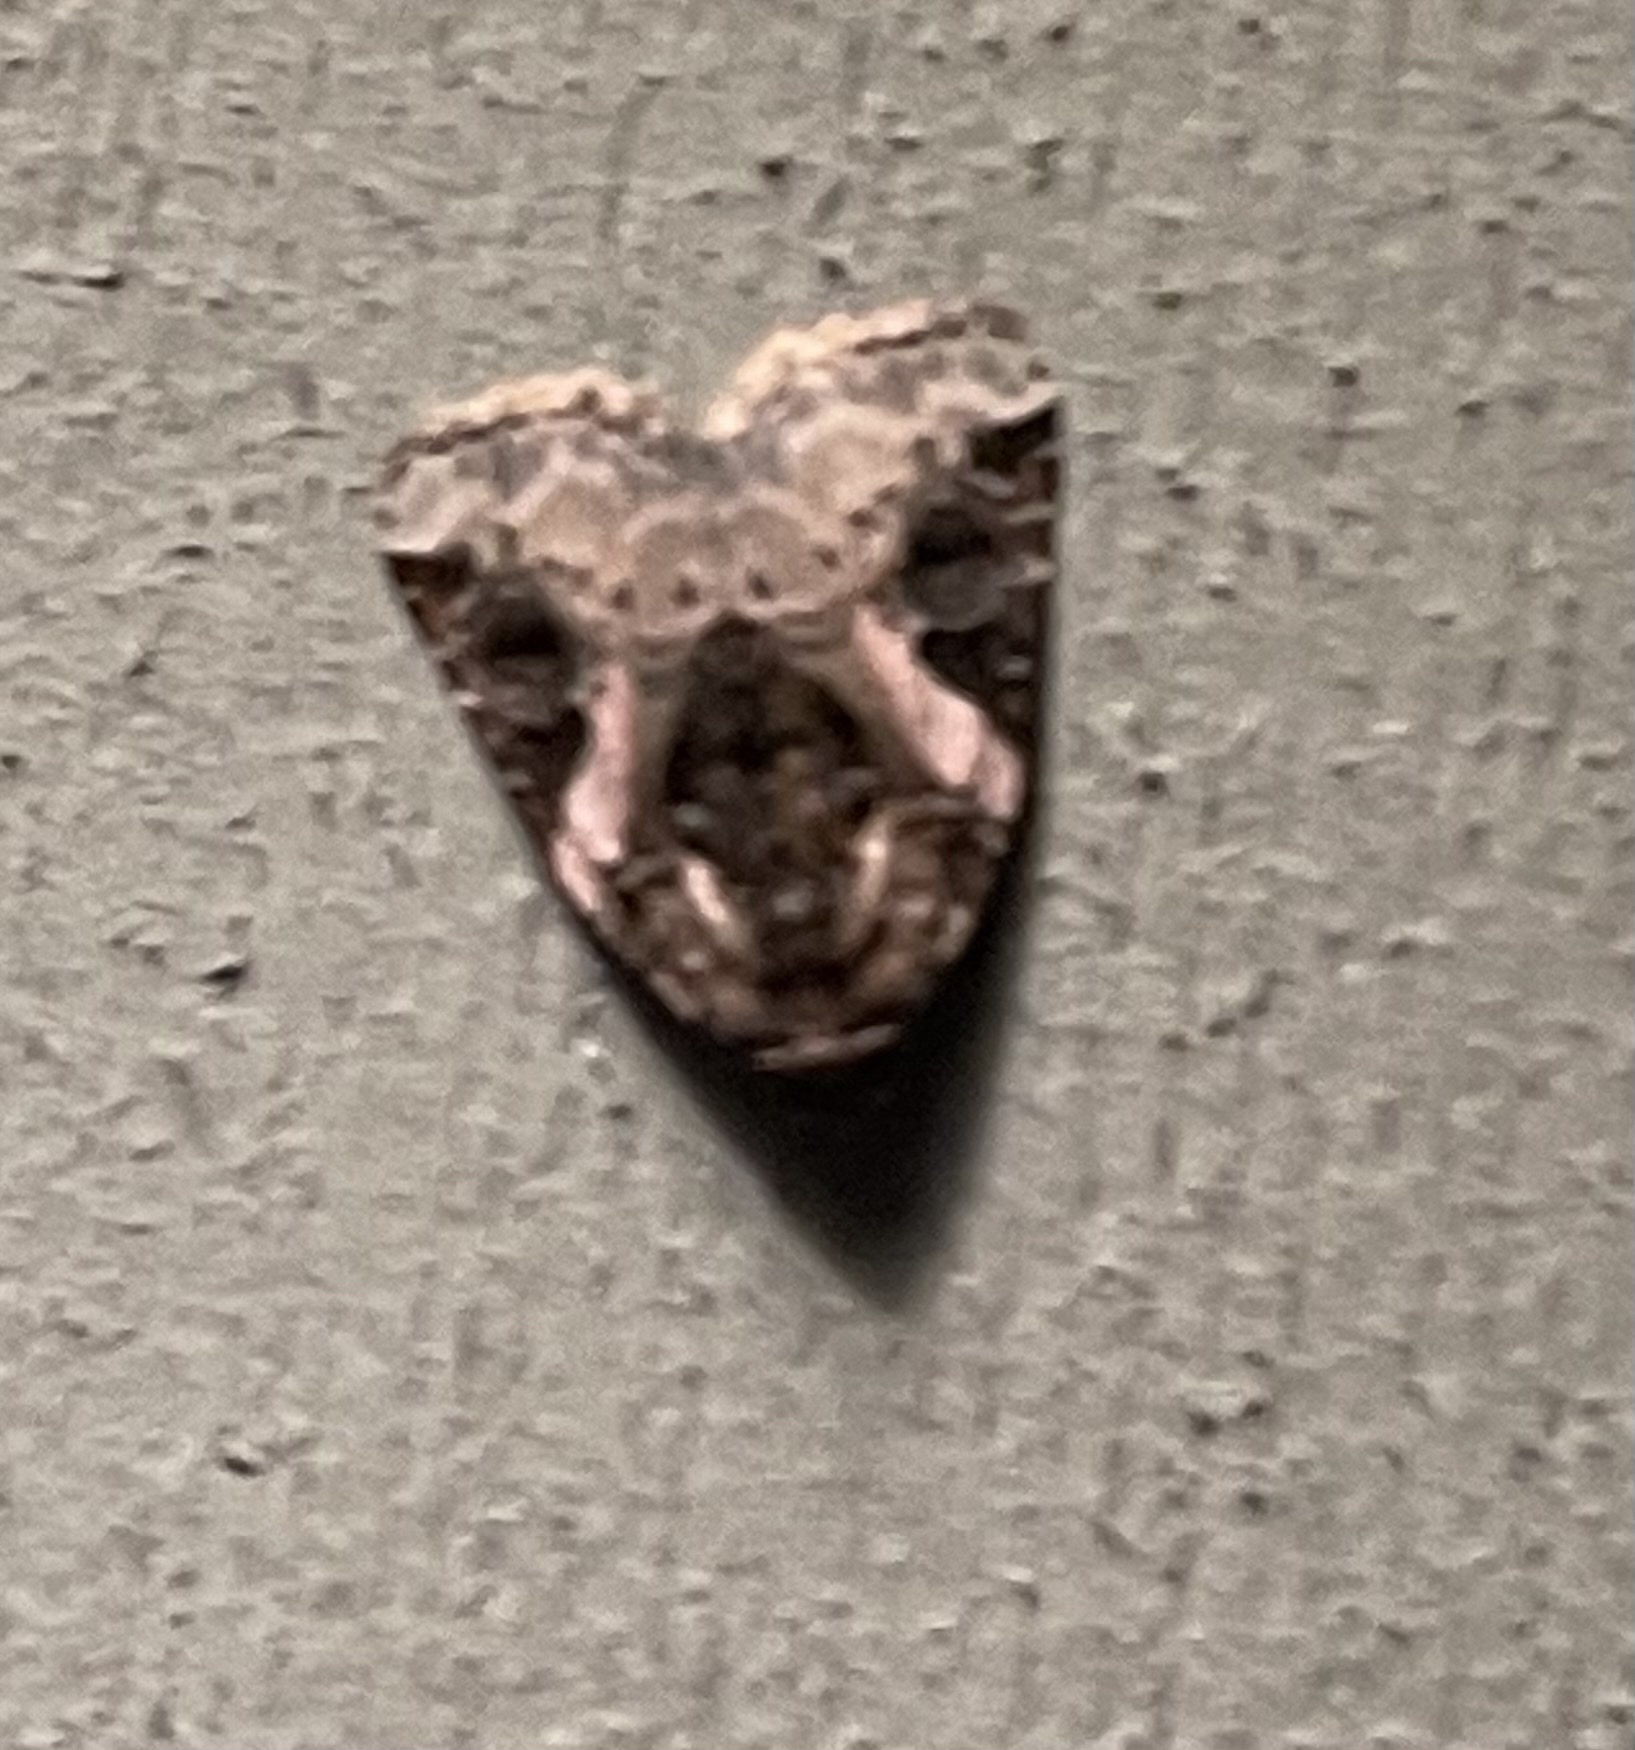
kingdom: Animalia
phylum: Arthropoda
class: Insecta
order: Lepidoptera
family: Noctuidae
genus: Pseudeustrotia
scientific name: Pseudeustrotia carneola
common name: Pink-barred lithacodia moth
